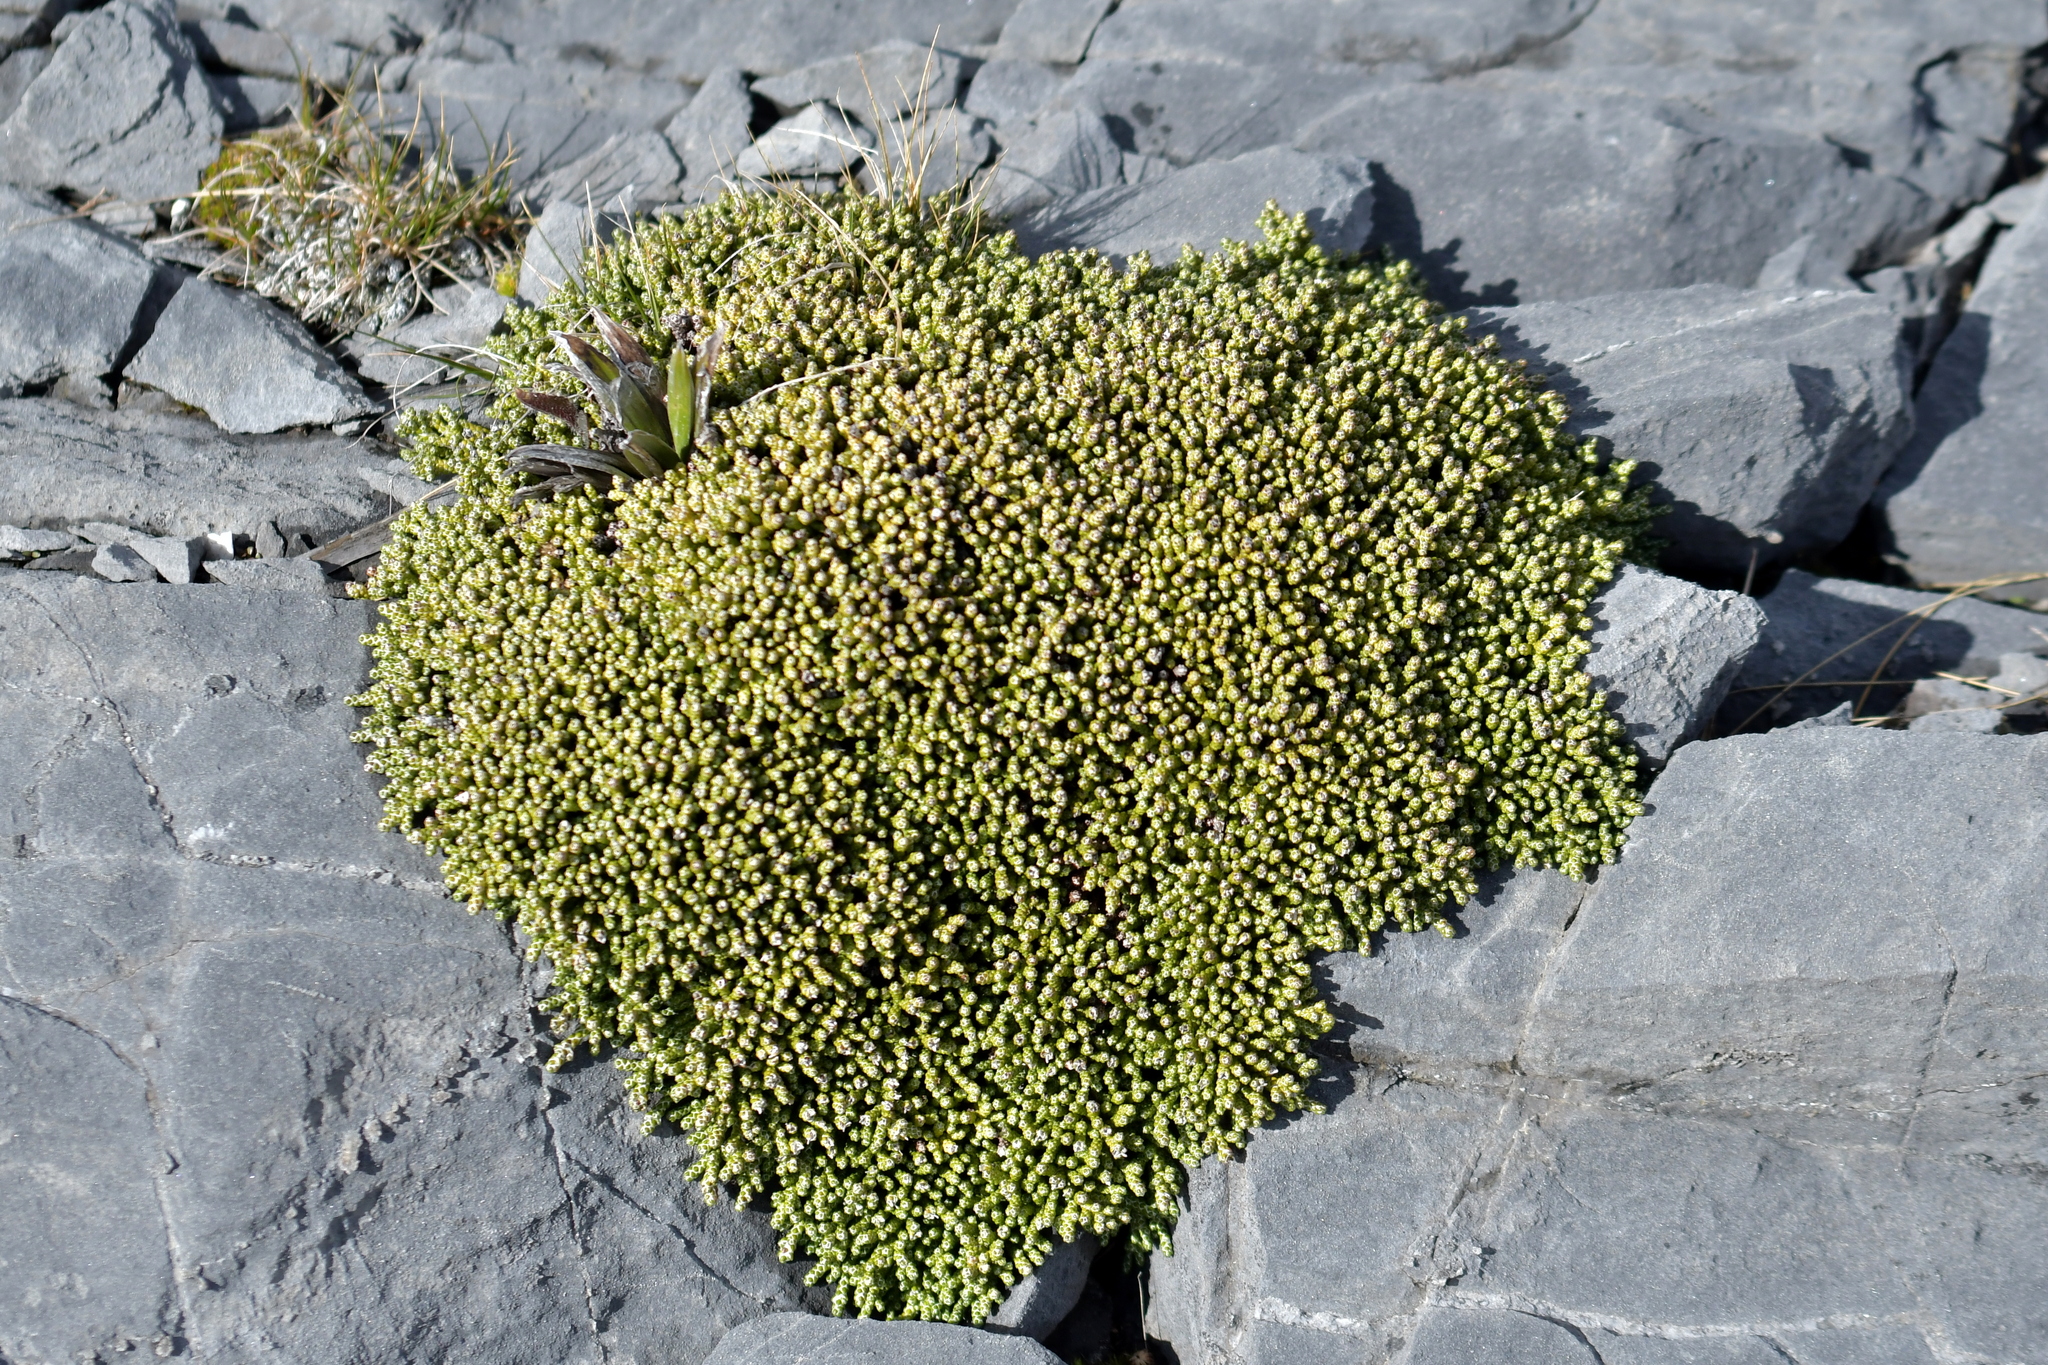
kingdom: Plantae
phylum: Tracheophyta
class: Magnoliopsida
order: Asterales
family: Asteraceae
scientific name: Asteraceae
